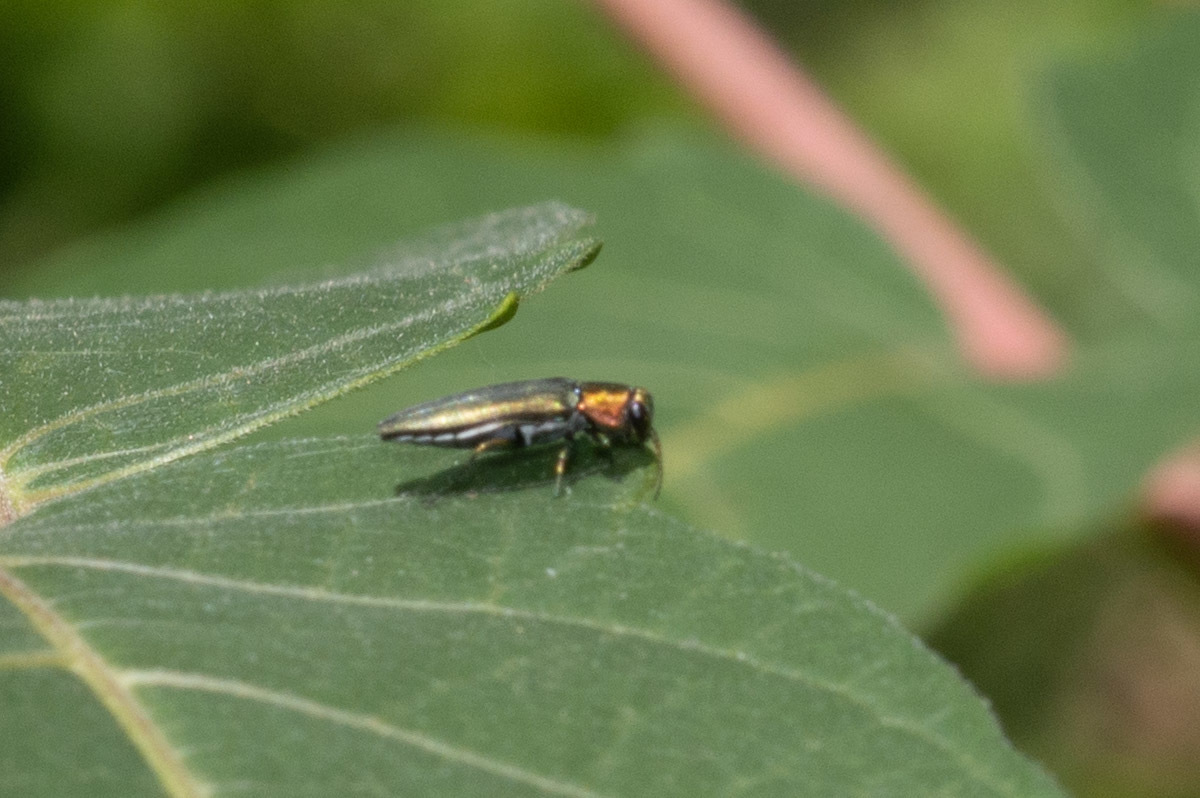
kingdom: Animalia
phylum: Arthropoda
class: Insecta
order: Coleoptera
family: Buprestidae
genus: Agrilus
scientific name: Agrilus smaragdifrons
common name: East asian buprestid
